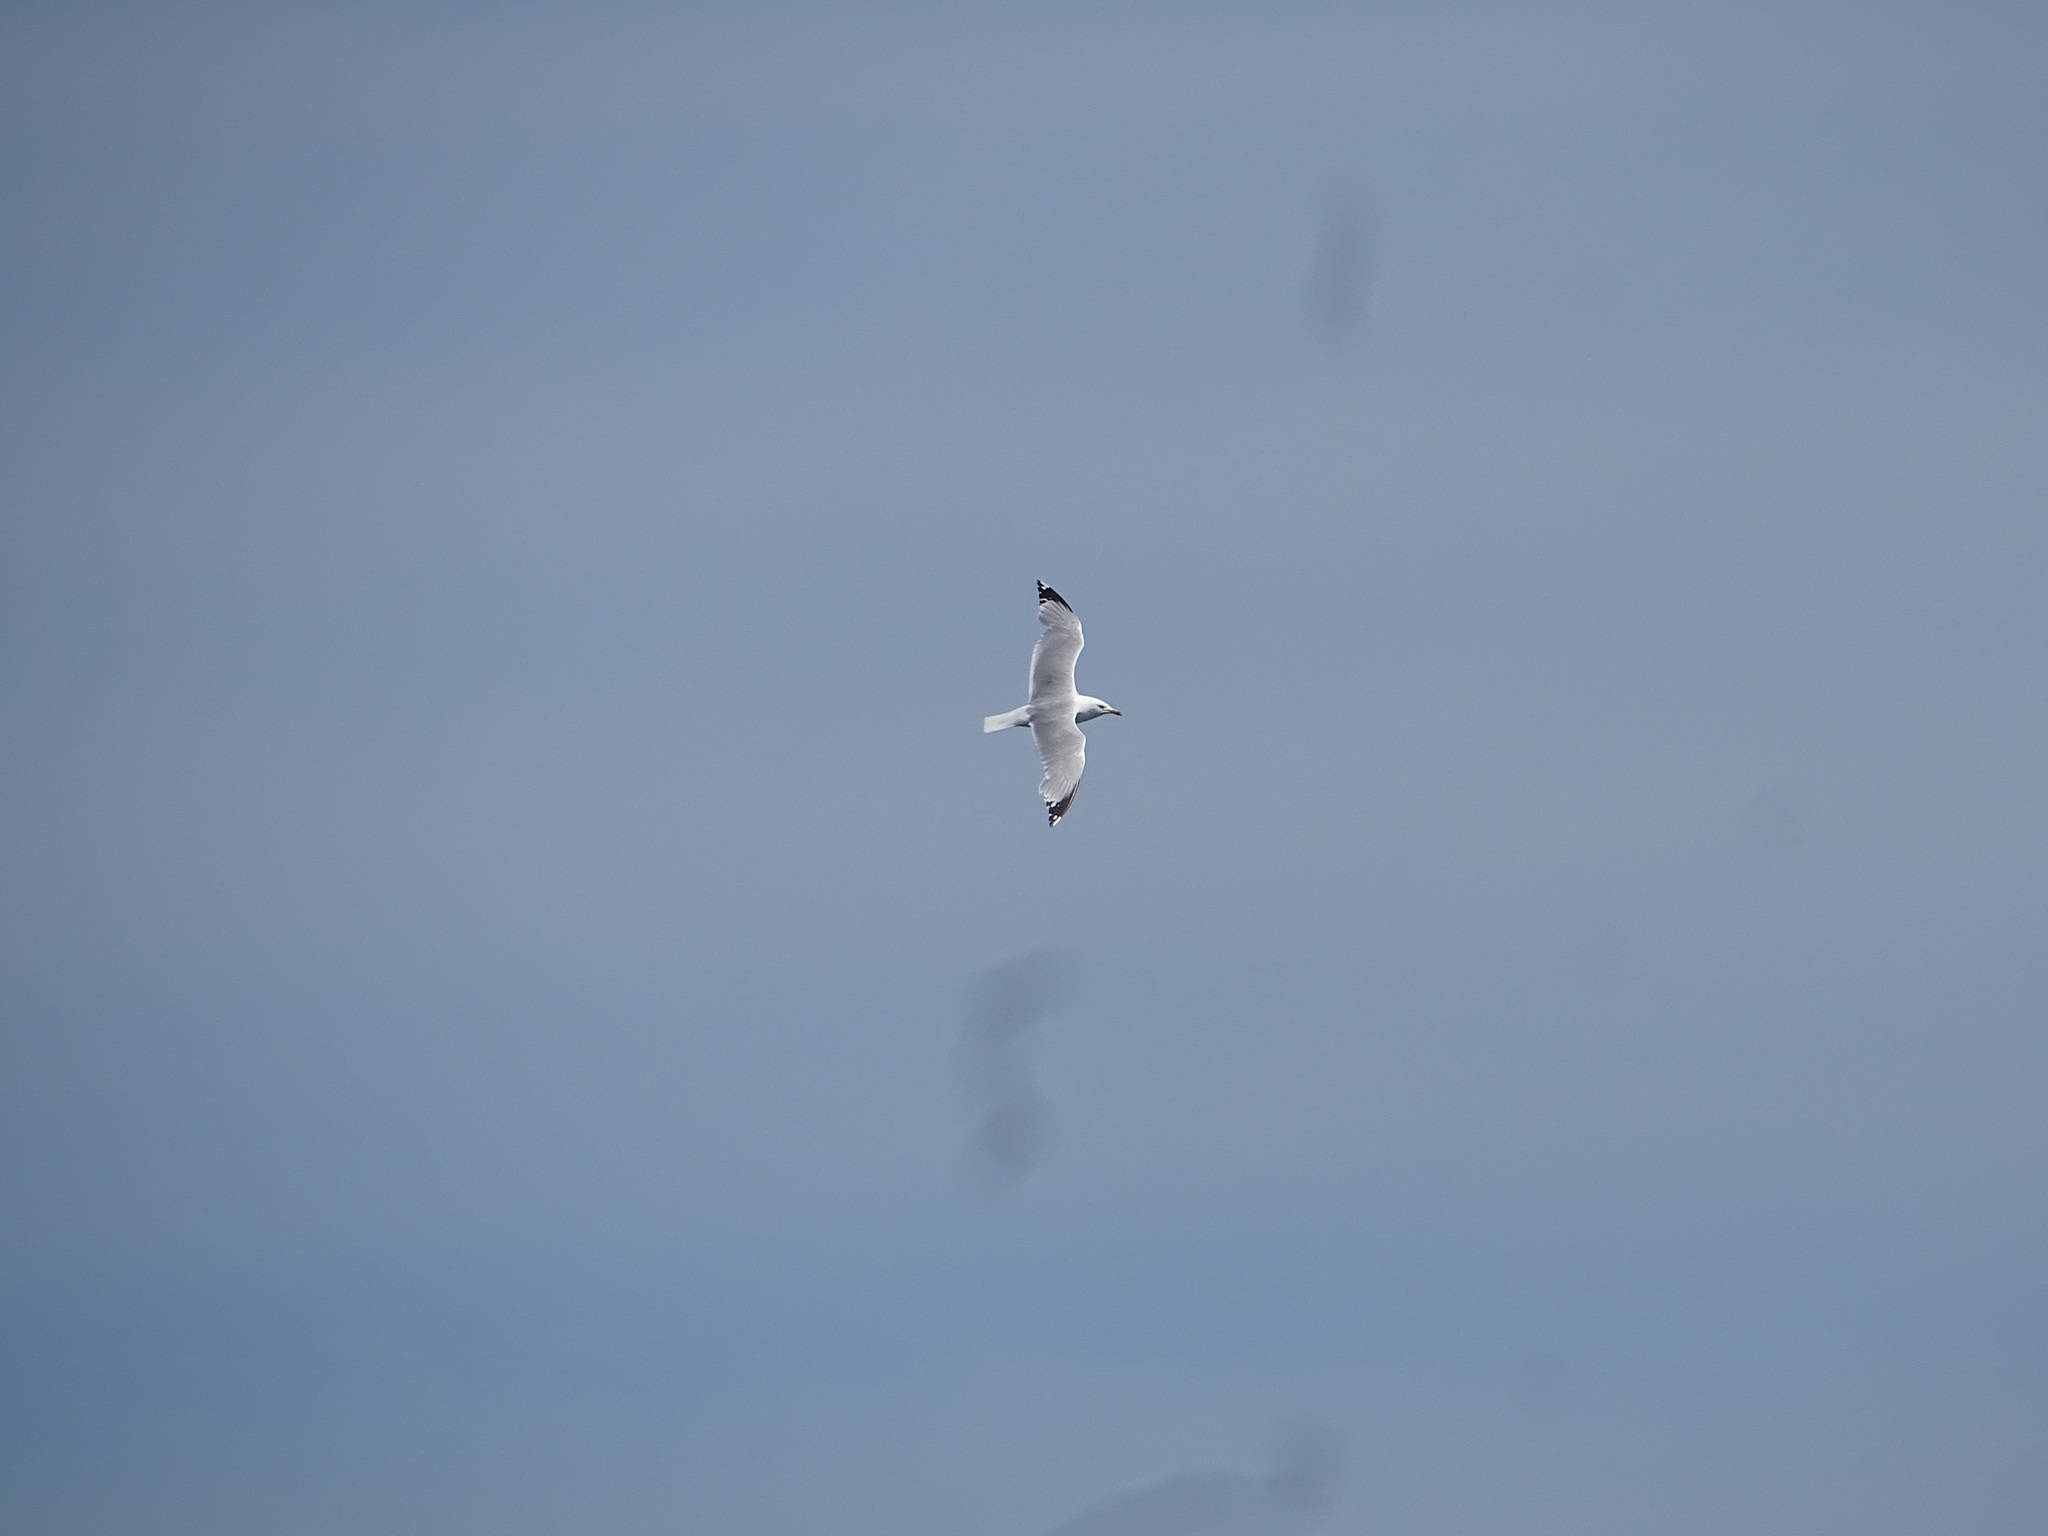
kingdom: Animalia
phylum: Chordata
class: Aves
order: Charadriiformes
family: Laridae
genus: Larus
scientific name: Larus delawarensis
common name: Ring-billed gull
